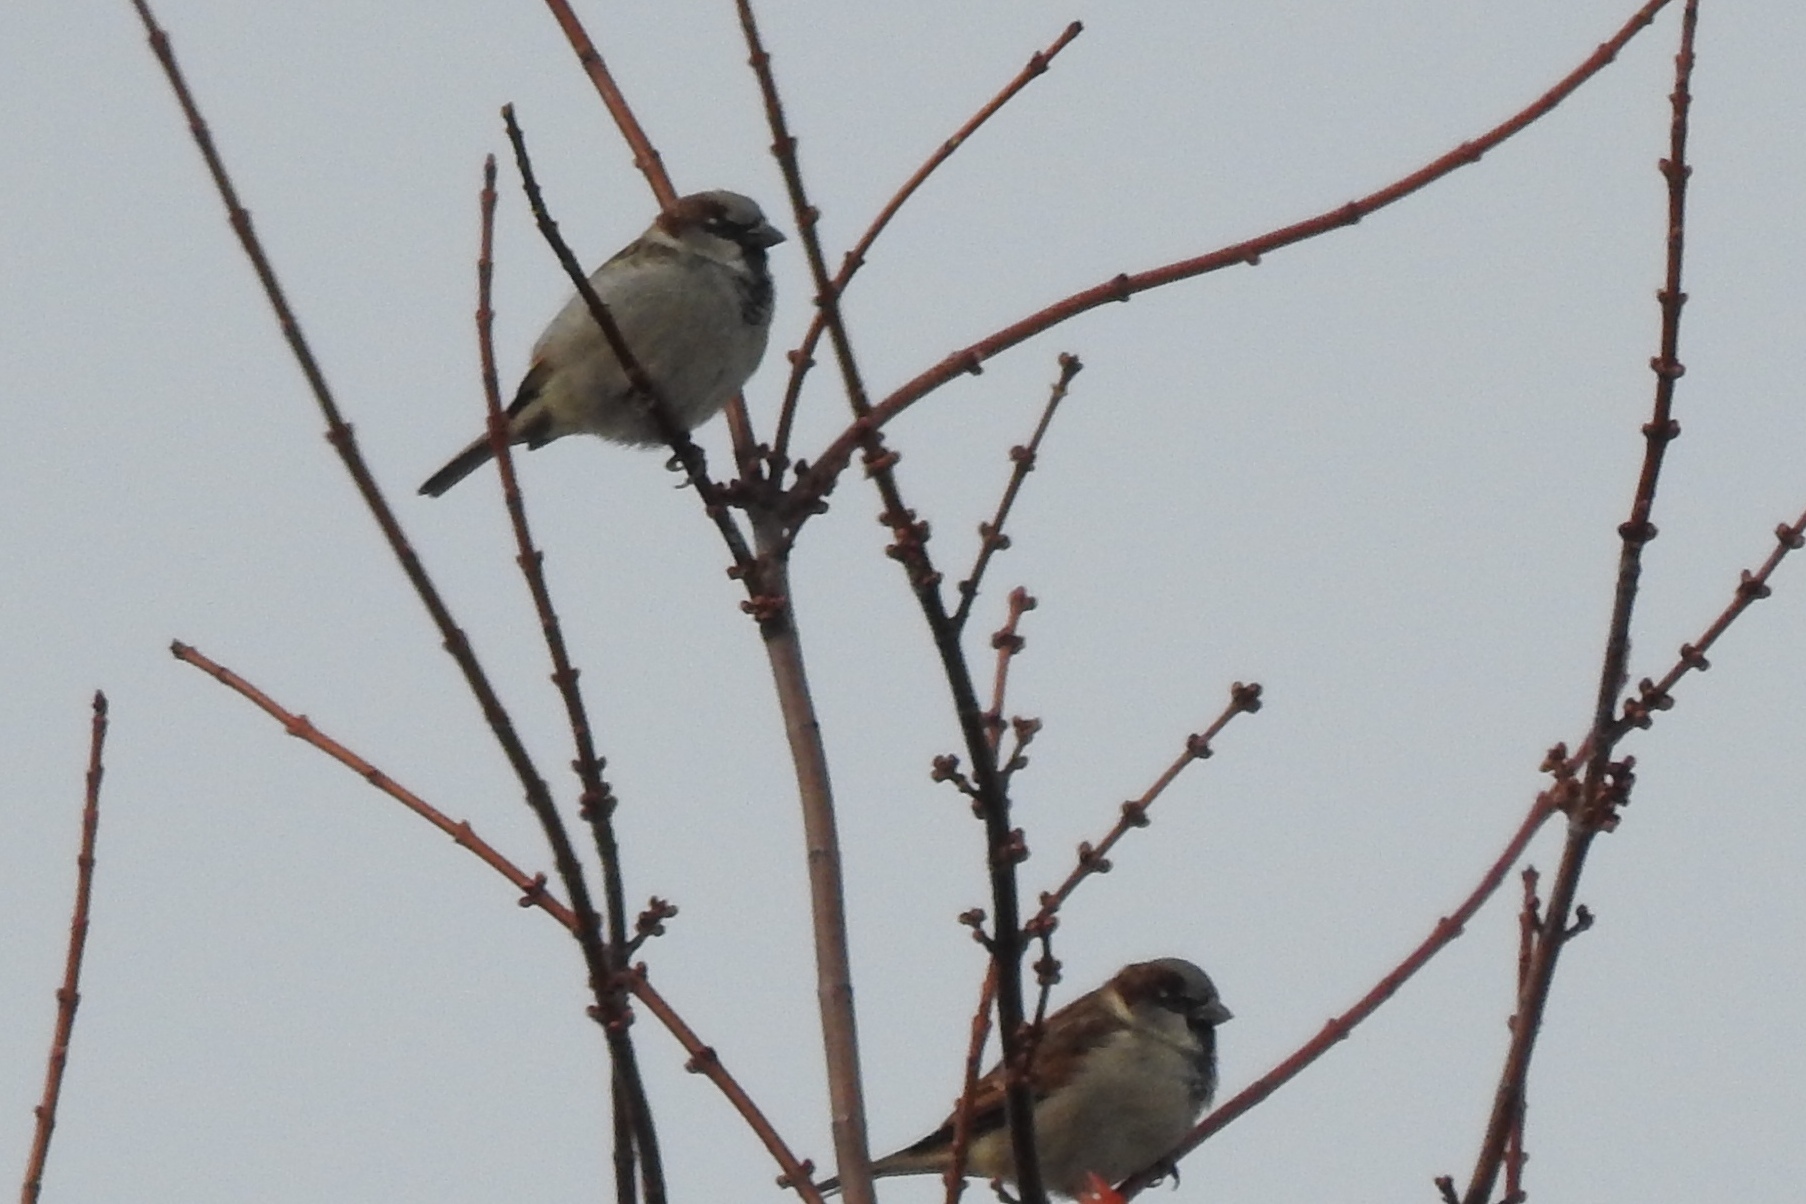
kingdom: Animalia
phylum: Chordata
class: Aves
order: Passeriformes
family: Passeridae
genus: Passer
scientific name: Passer domesticus
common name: House sparrow
